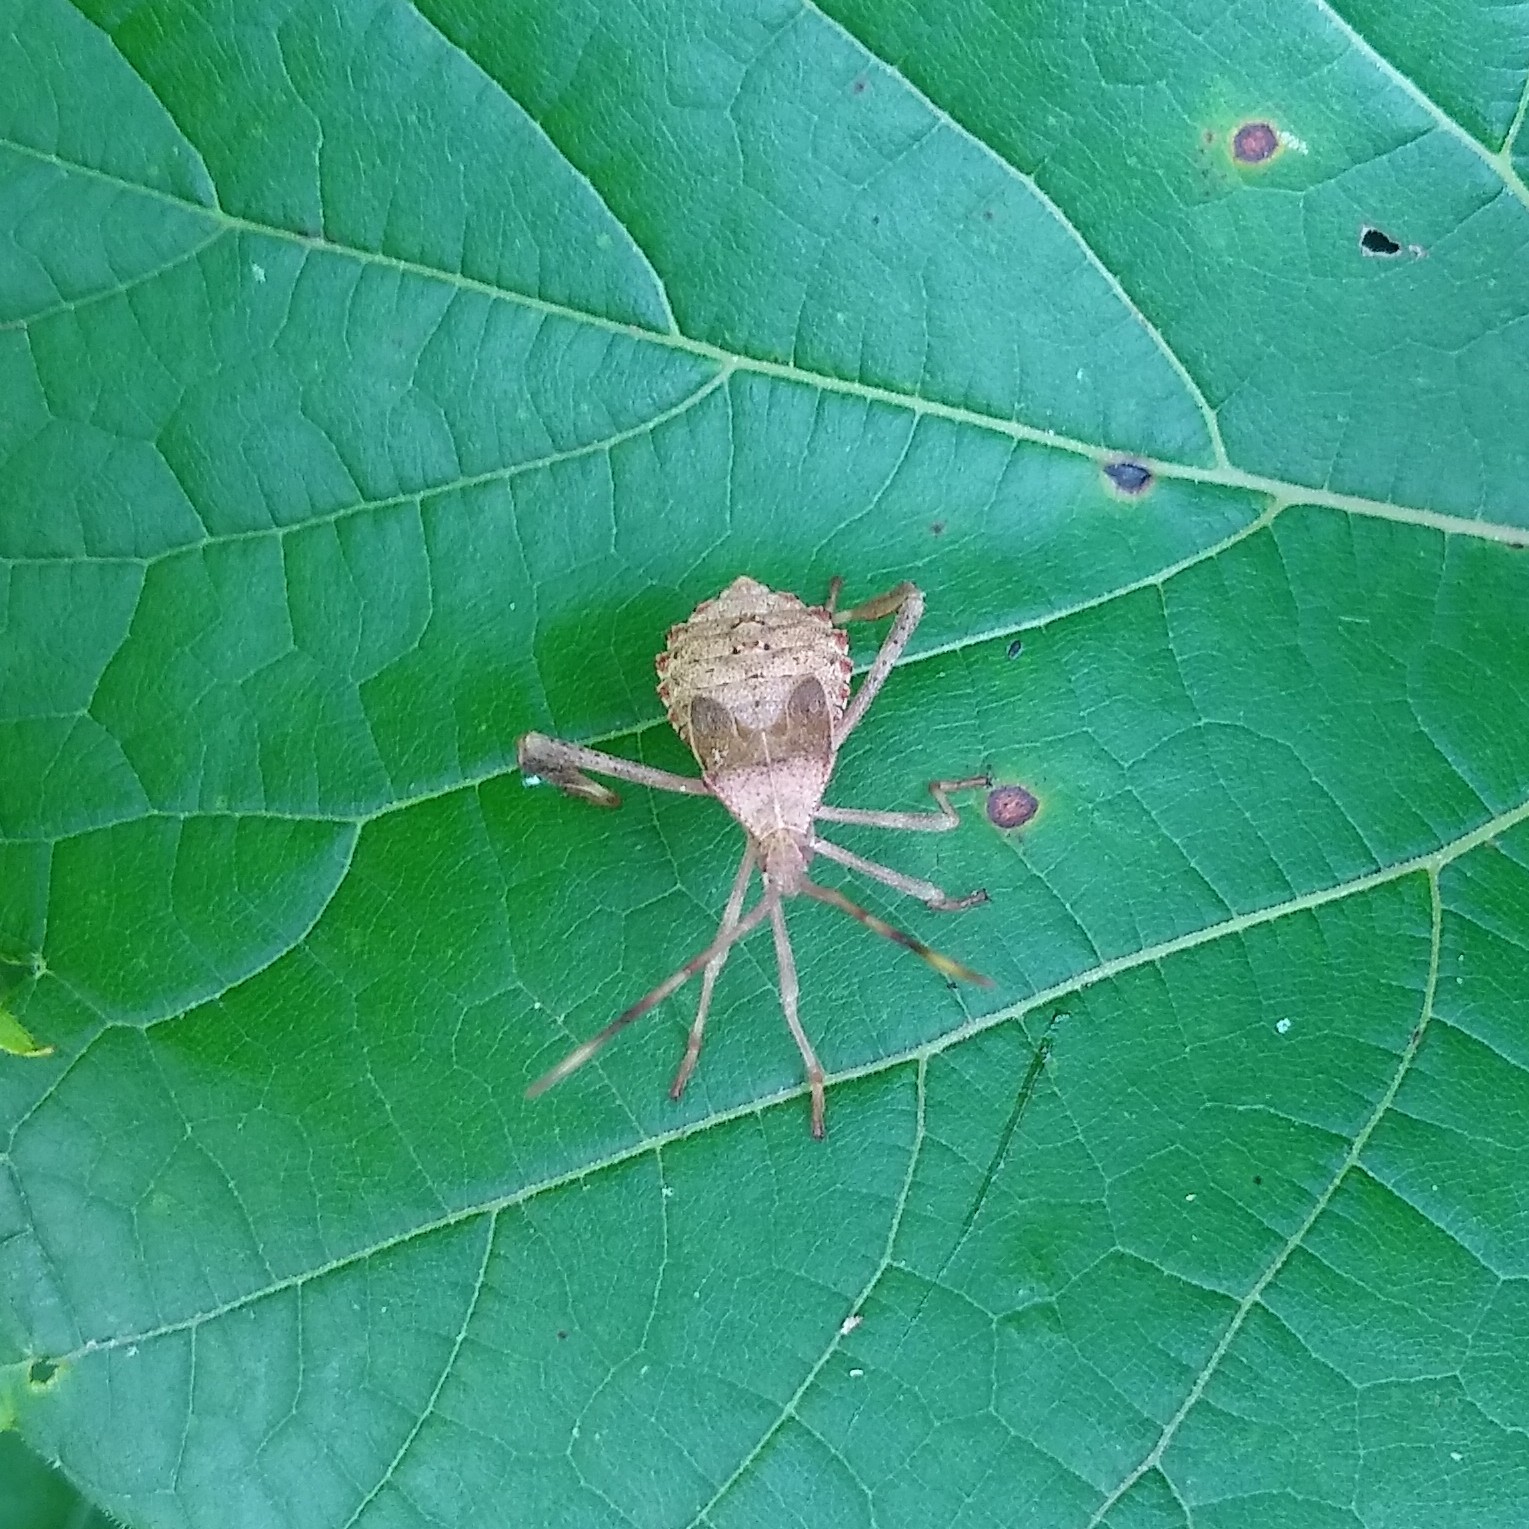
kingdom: Animalia
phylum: Arthropoda
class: Insecta
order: Hemiptera
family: Coreidae
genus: Acanthocephala
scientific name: Acanthocephala terminalis
